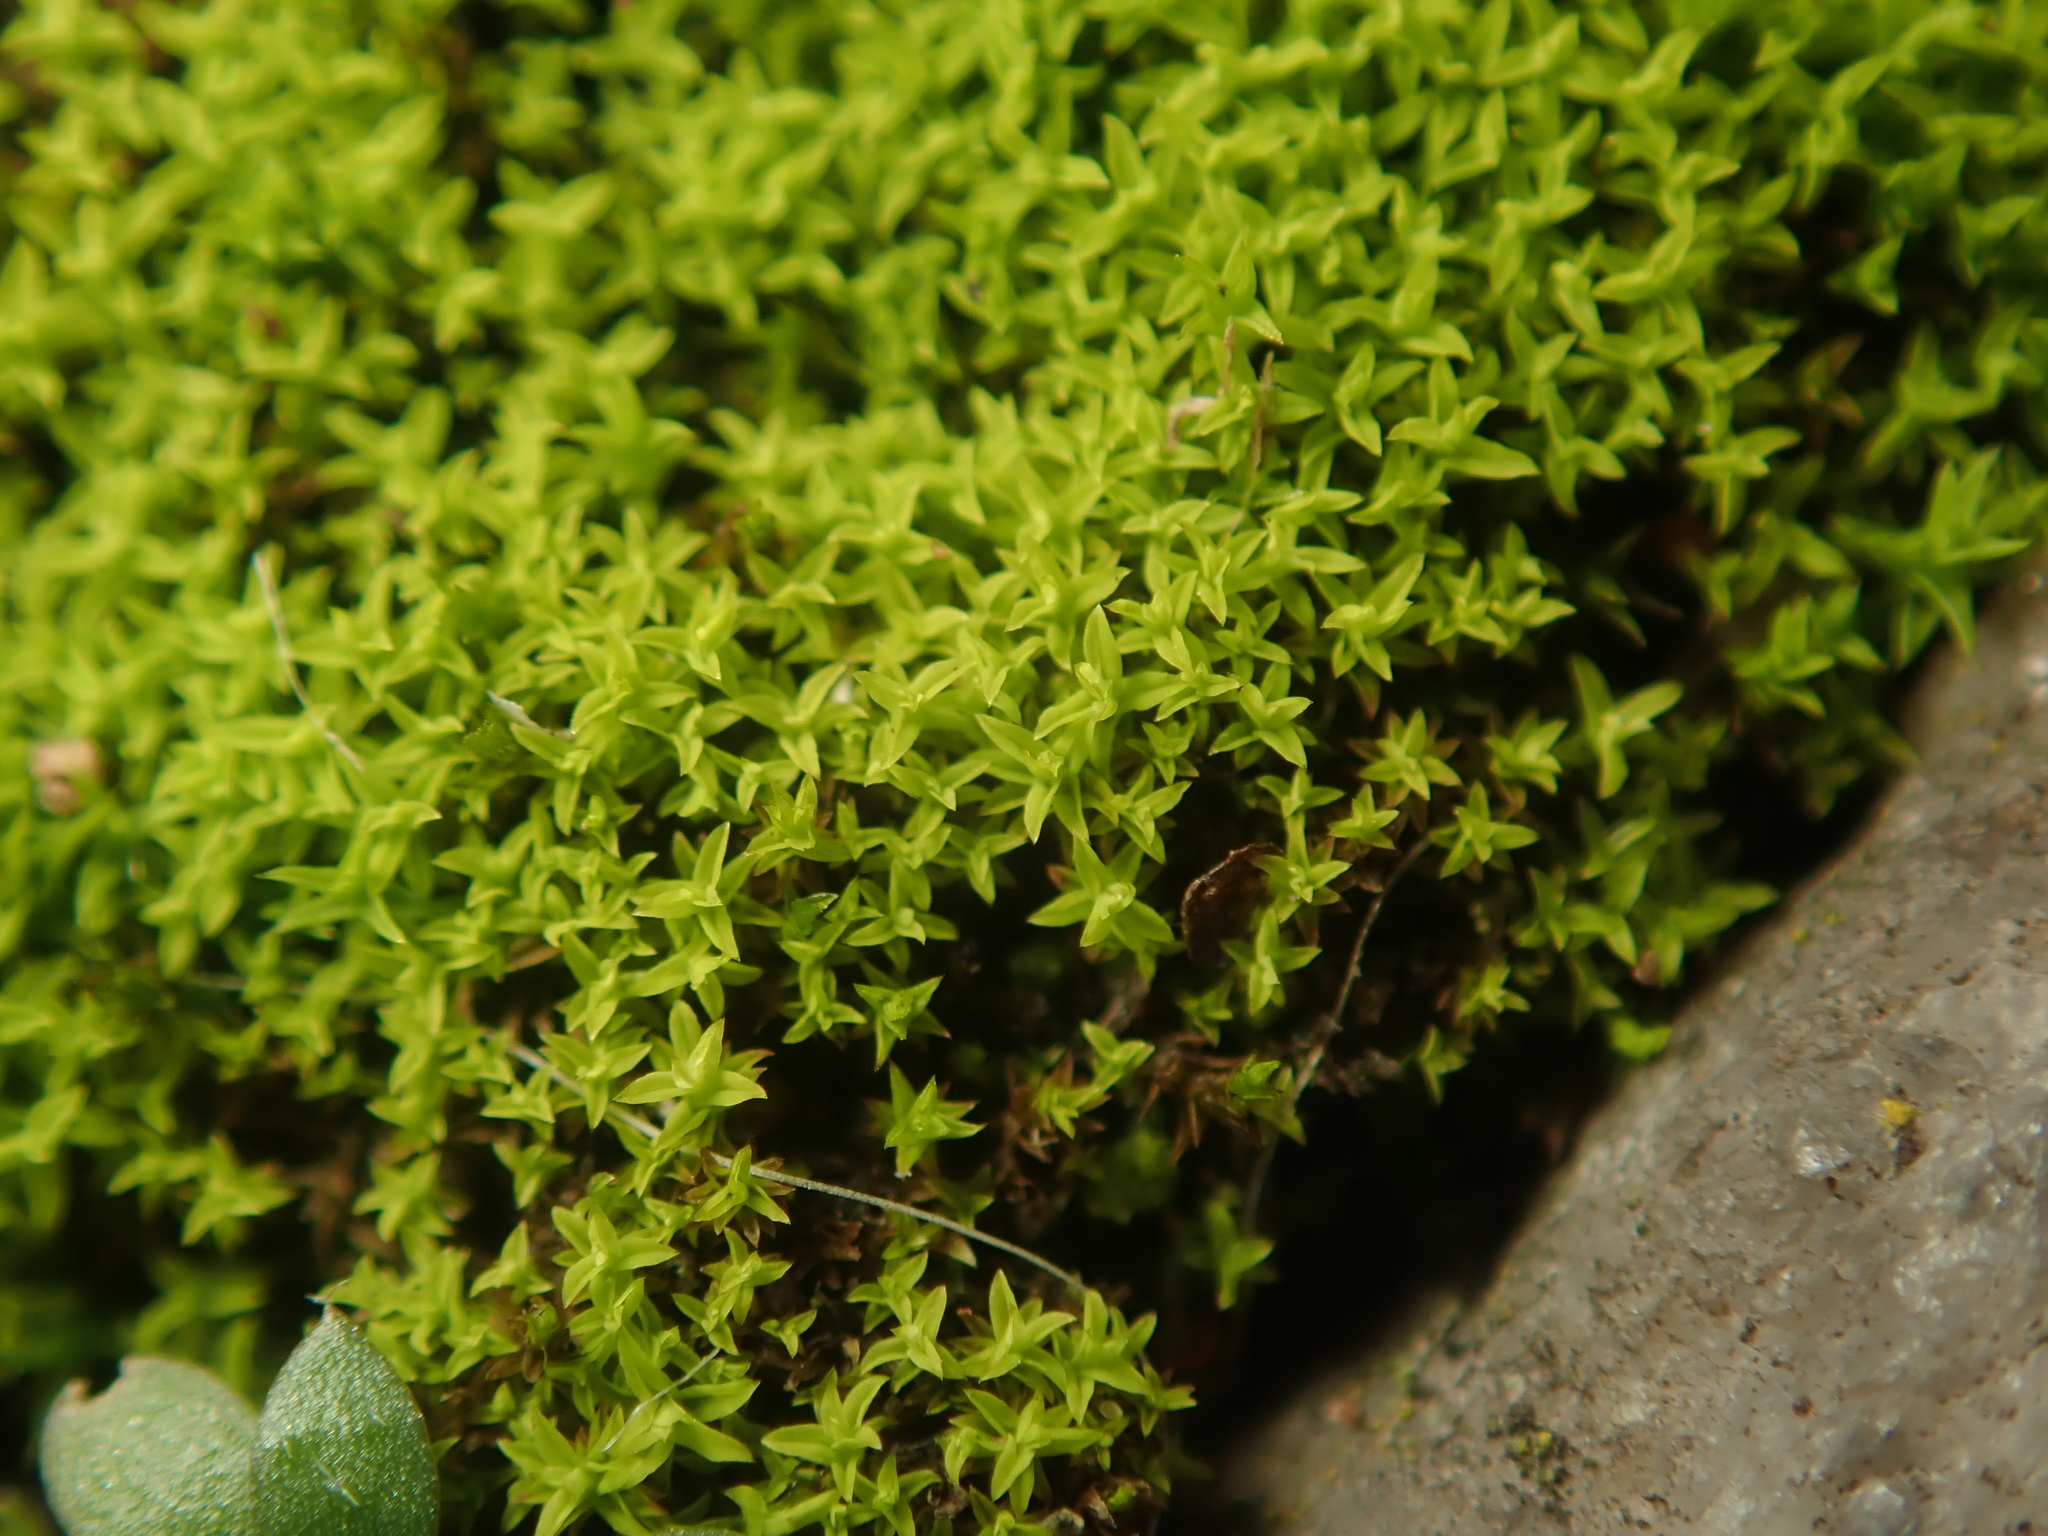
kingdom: Plantae
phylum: Bryophyta
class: Bryopsida
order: Pottiales
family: Pottiaceae
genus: Barbula
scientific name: Barbula unguiculata
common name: Prickly beard moss
